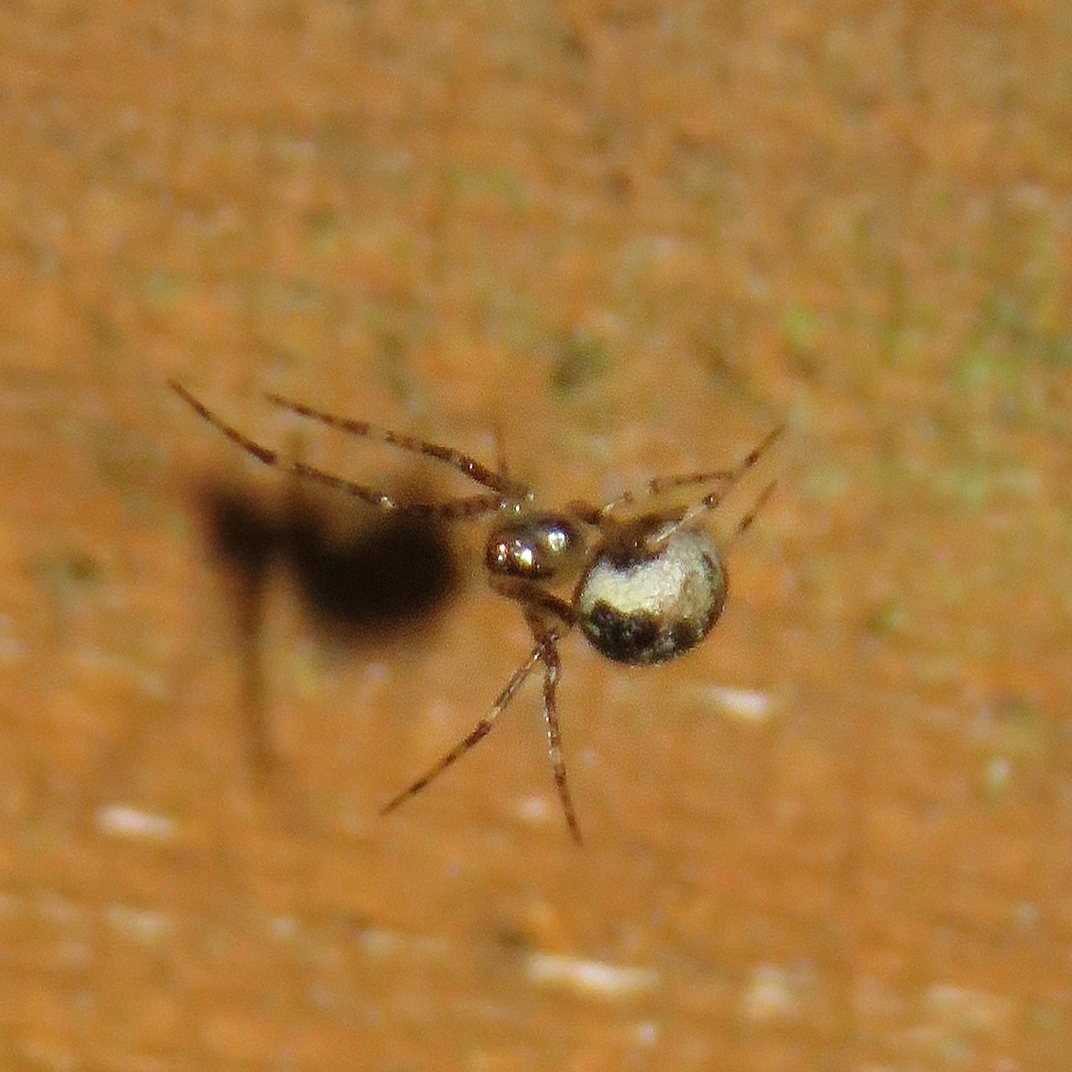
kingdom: Animalia
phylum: Arthropoda
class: Arachnida
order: Araneae
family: Theridiidae
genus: Platnickina
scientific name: Platnickina tincta
